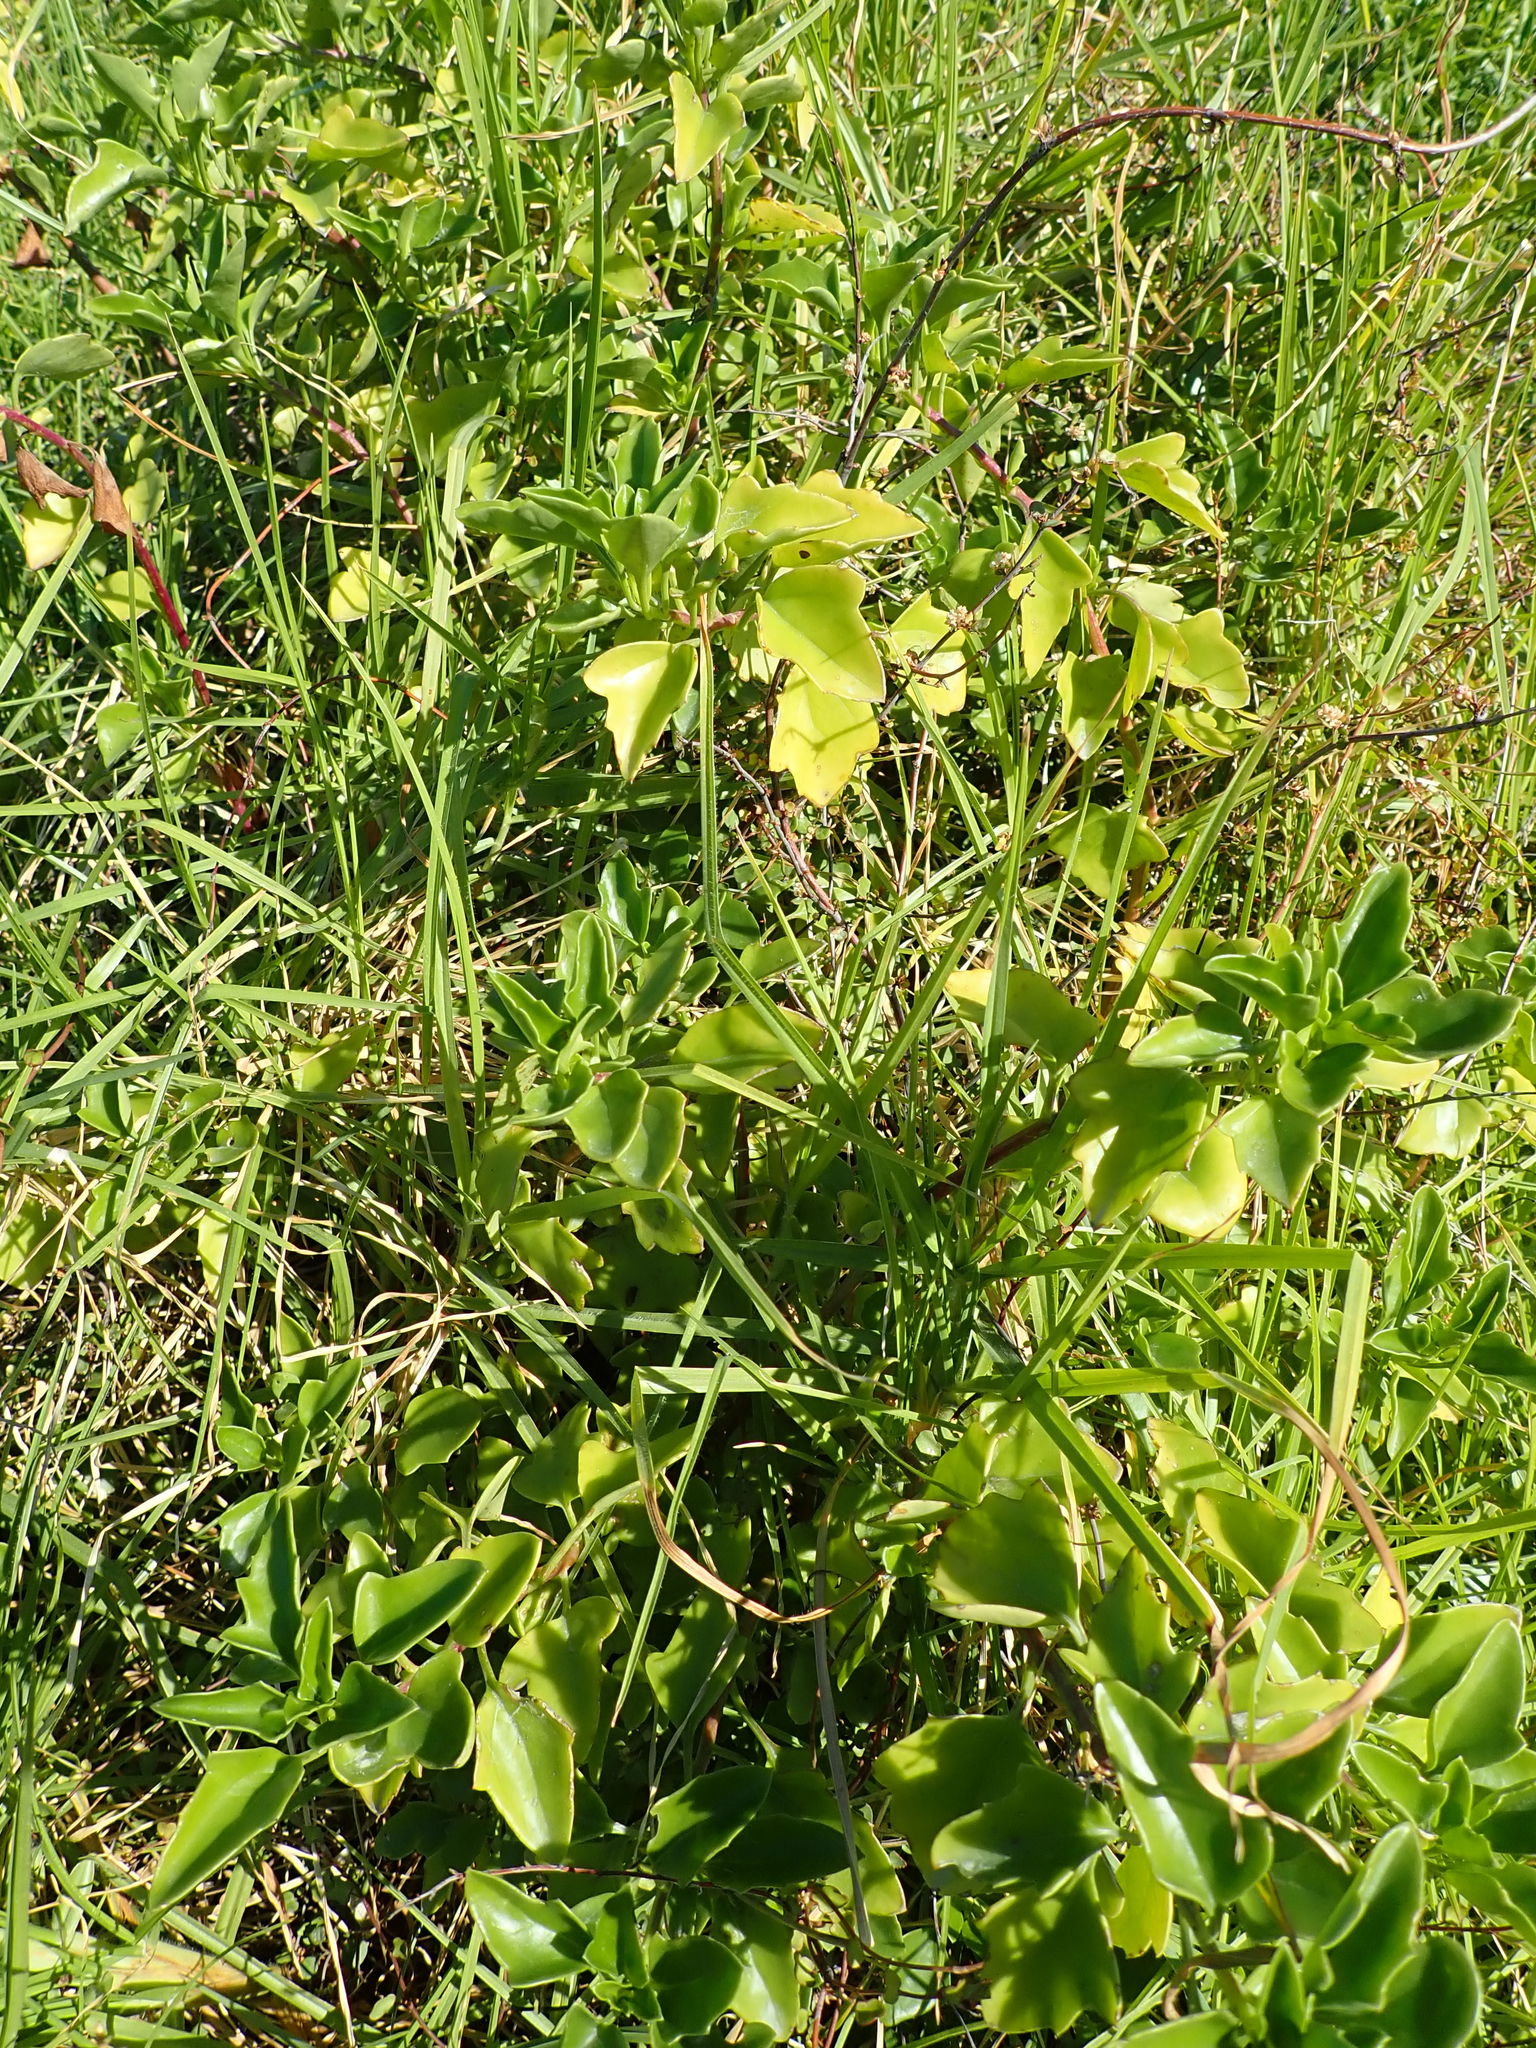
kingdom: Plantae
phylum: Tracheophyta
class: Magnoliopsida
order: Asterales
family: Asteraceae
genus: Senecio
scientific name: Senecio angulatus
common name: Climbing groundsel
